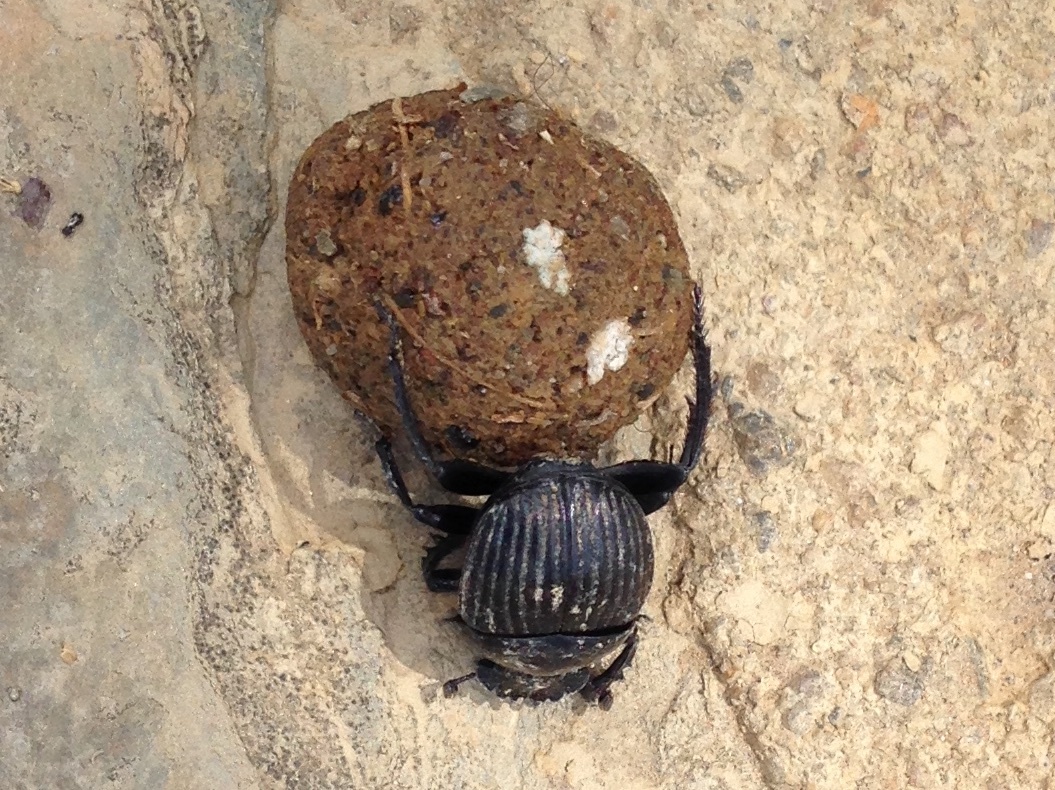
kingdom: Animalia
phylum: Arthropoda
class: Insecta
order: Coleoptera
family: Scarabaeidae
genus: Ateuchetus
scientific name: Ateuchetus laticollis
